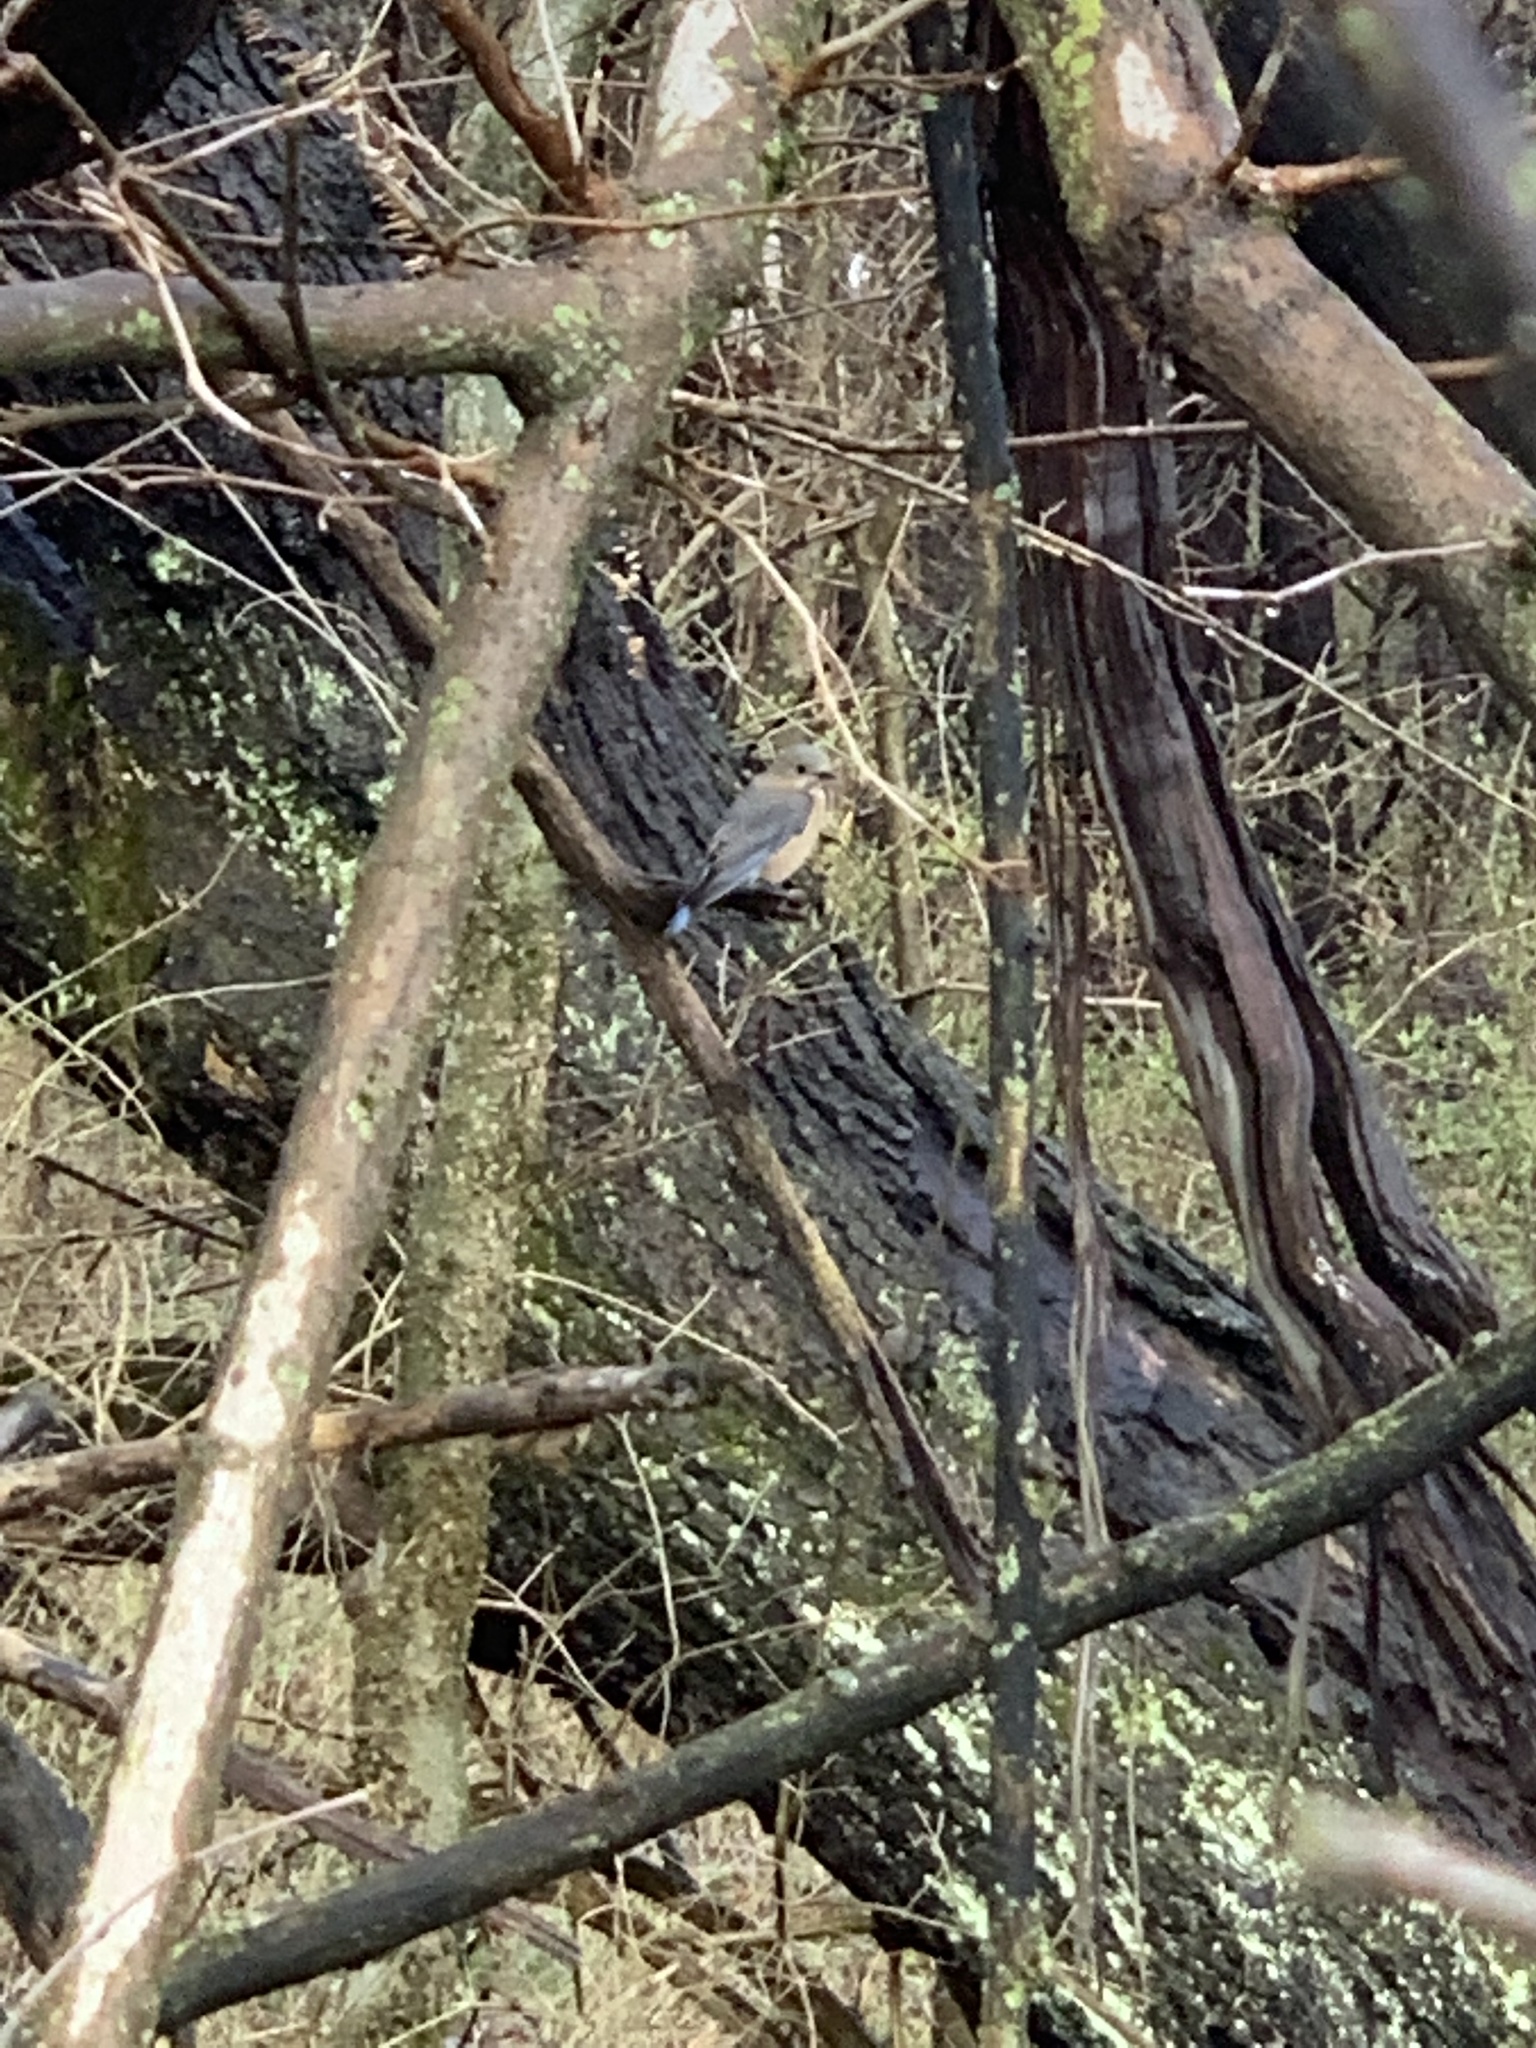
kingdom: Animalia
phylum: Chordata
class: Aves
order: Passeriformes
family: Turdidae
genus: Sialia
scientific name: Sialia sialis
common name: Eastern bluebird
